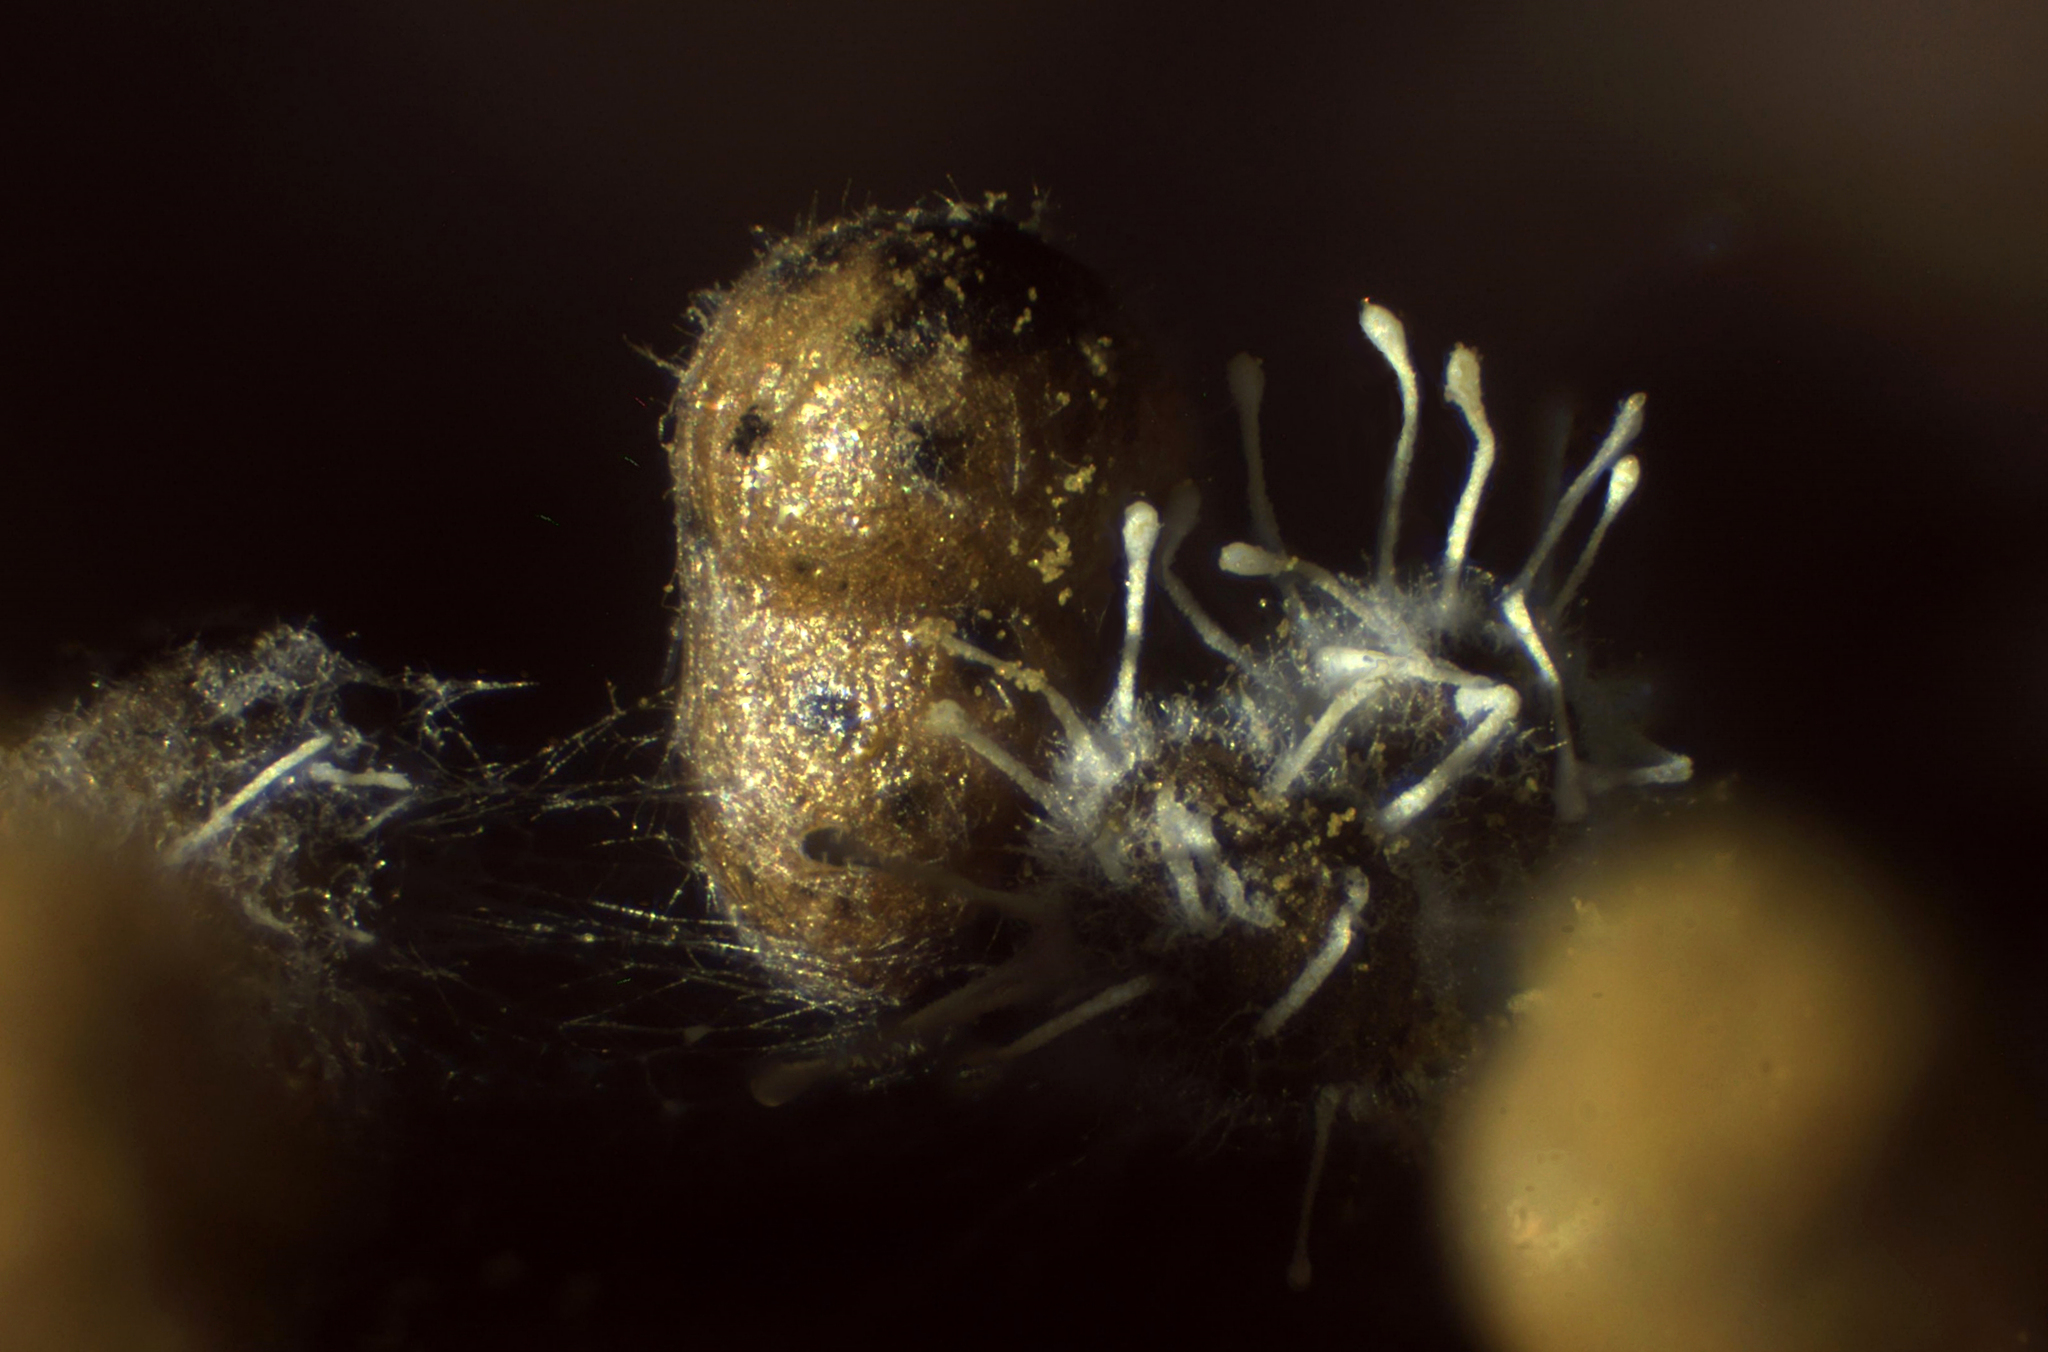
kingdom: Fungi
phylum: Ascomycota
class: Sordariomycetes
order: Hypocreales
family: Ophiocordycipitaceae
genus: Polycephalomyces
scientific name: Polycephalomyces tomentosus
